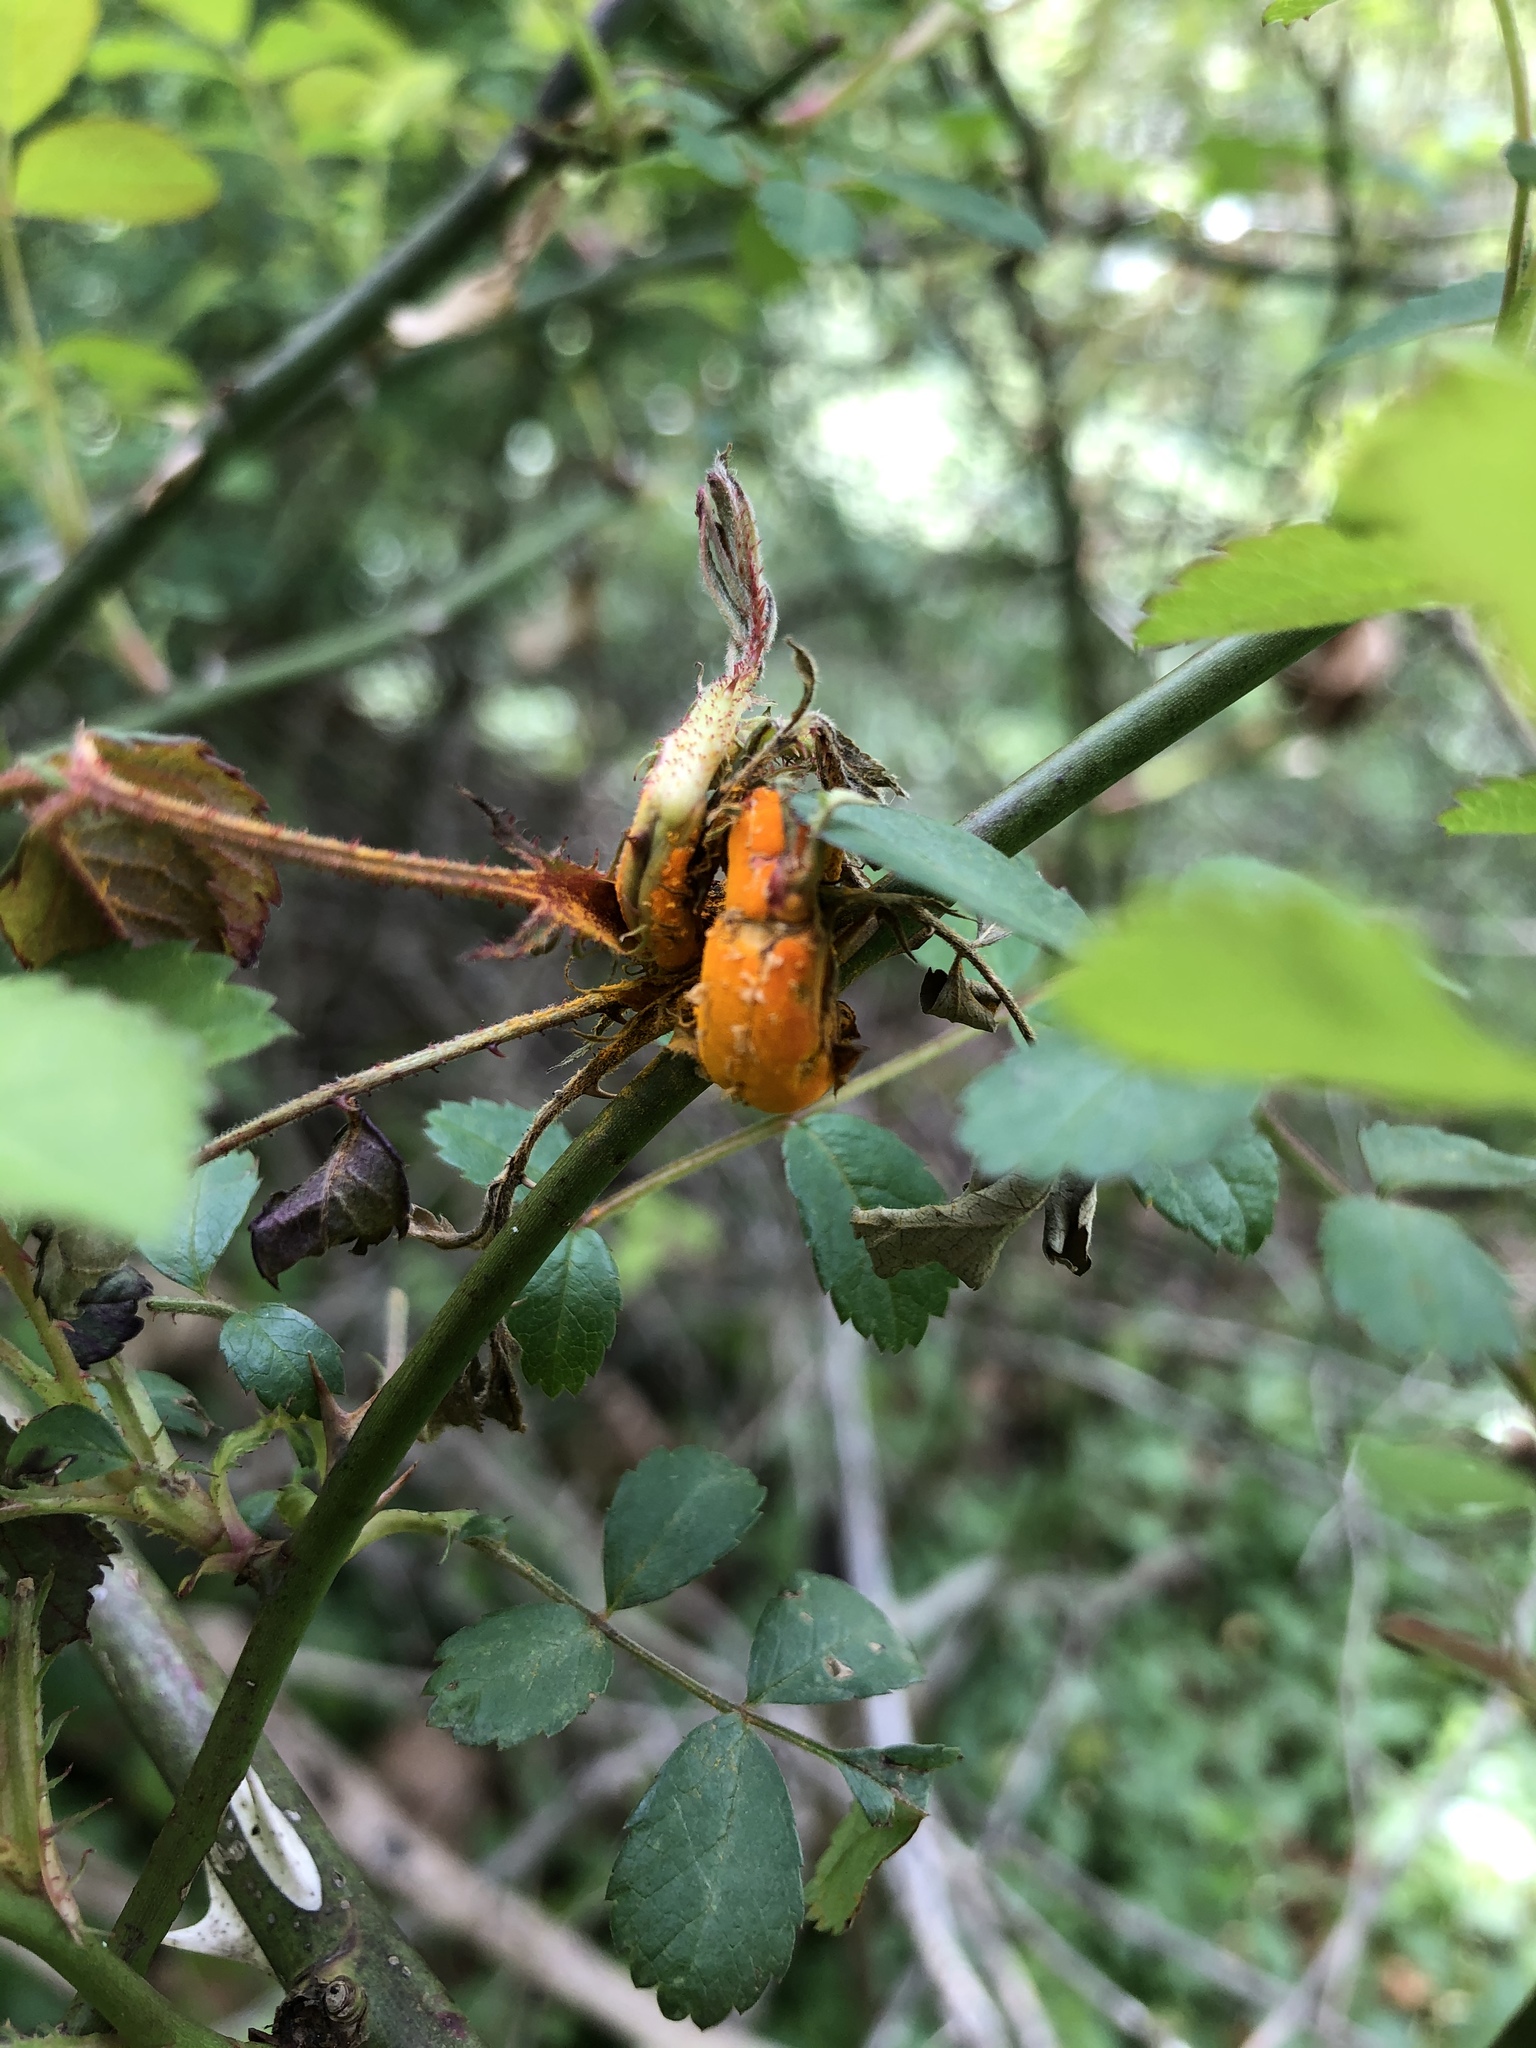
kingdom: Fungi
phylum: Basidiomycota
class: Pucciniomycetes
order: Pucciniales
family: Phragmidiaceae
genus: Phragmidium
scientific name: Phragmidium rosae-multiflorae
